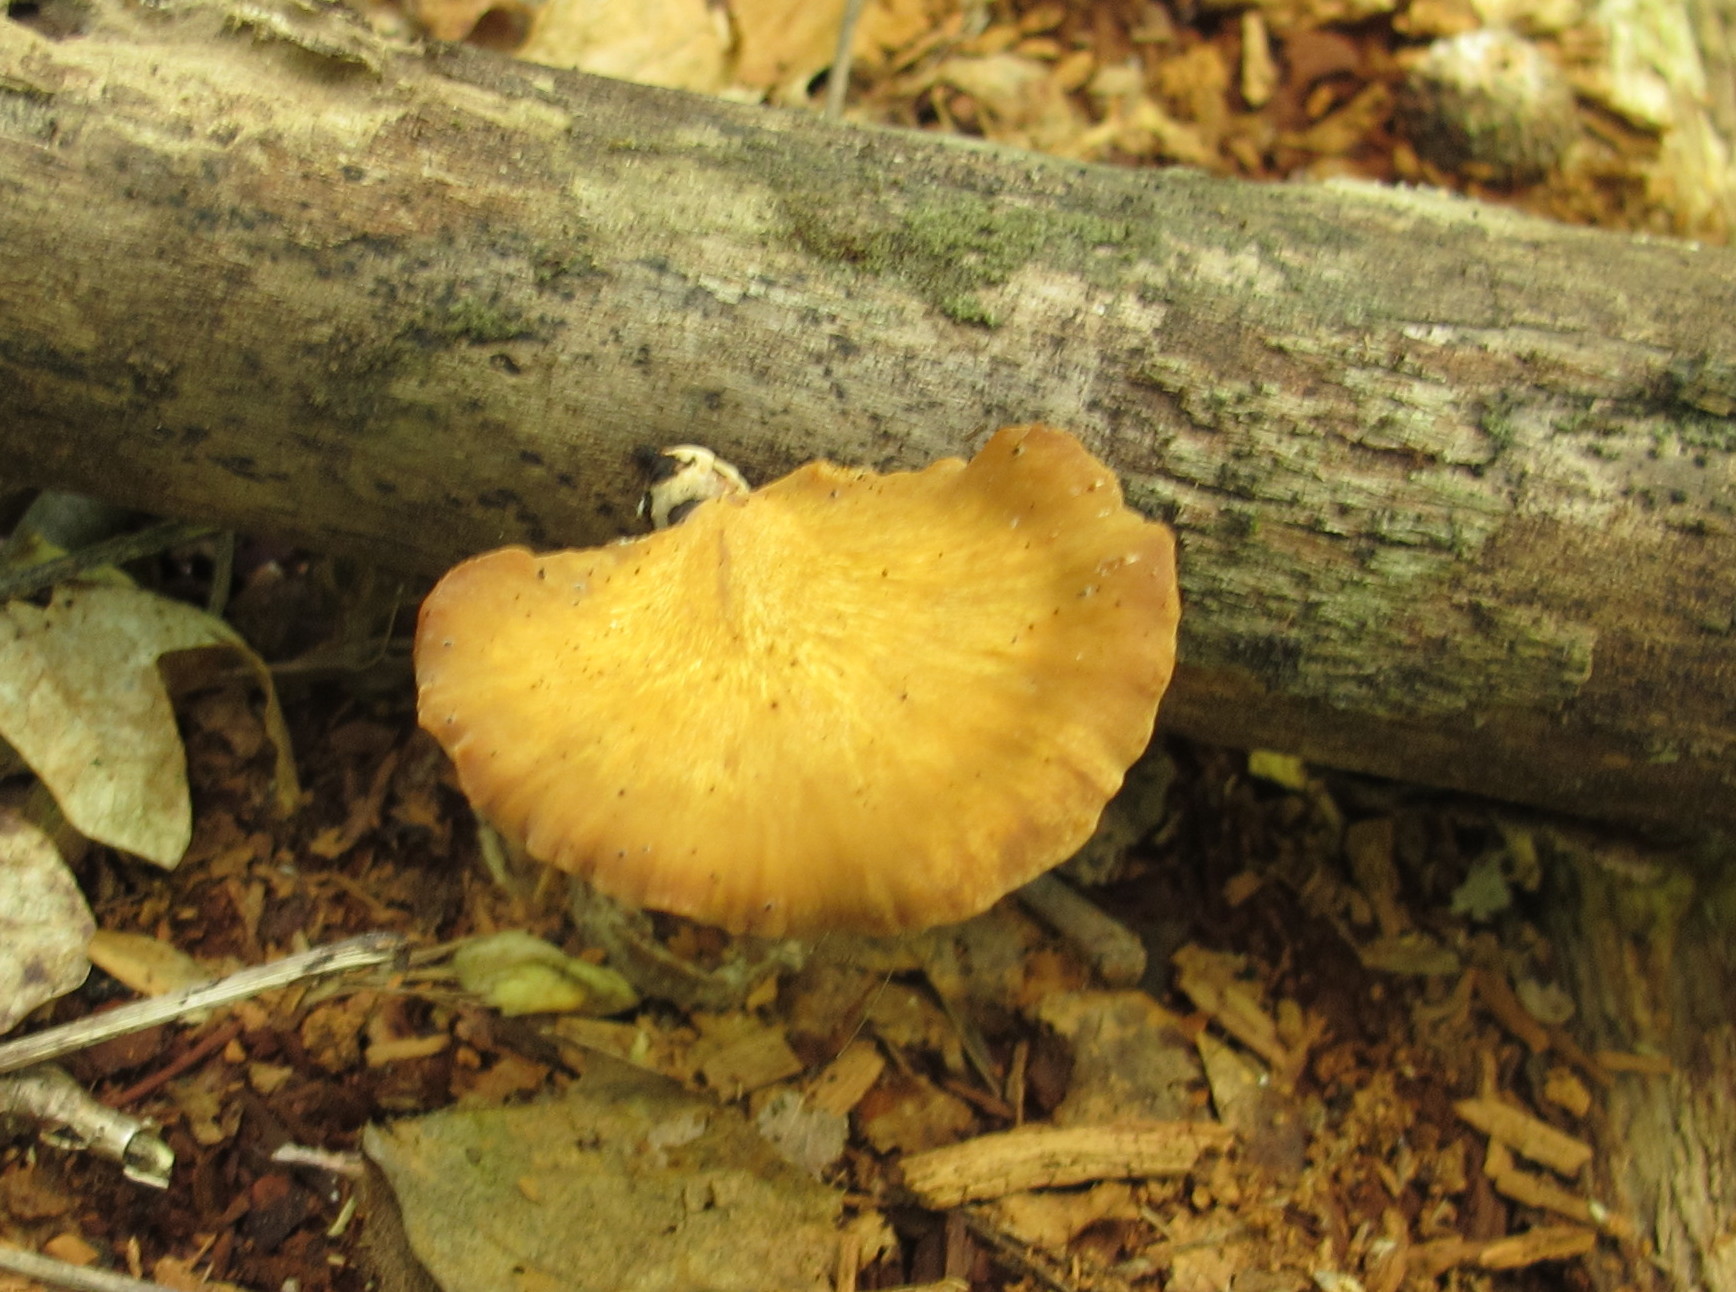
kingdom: Fungi
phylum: Basidiomycota
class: Agaricomycetes
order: Polyporales
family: Polyporaceae
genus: Cerioporus
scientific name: Cerioporus leptocephalus
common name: Blackfoot polypore
